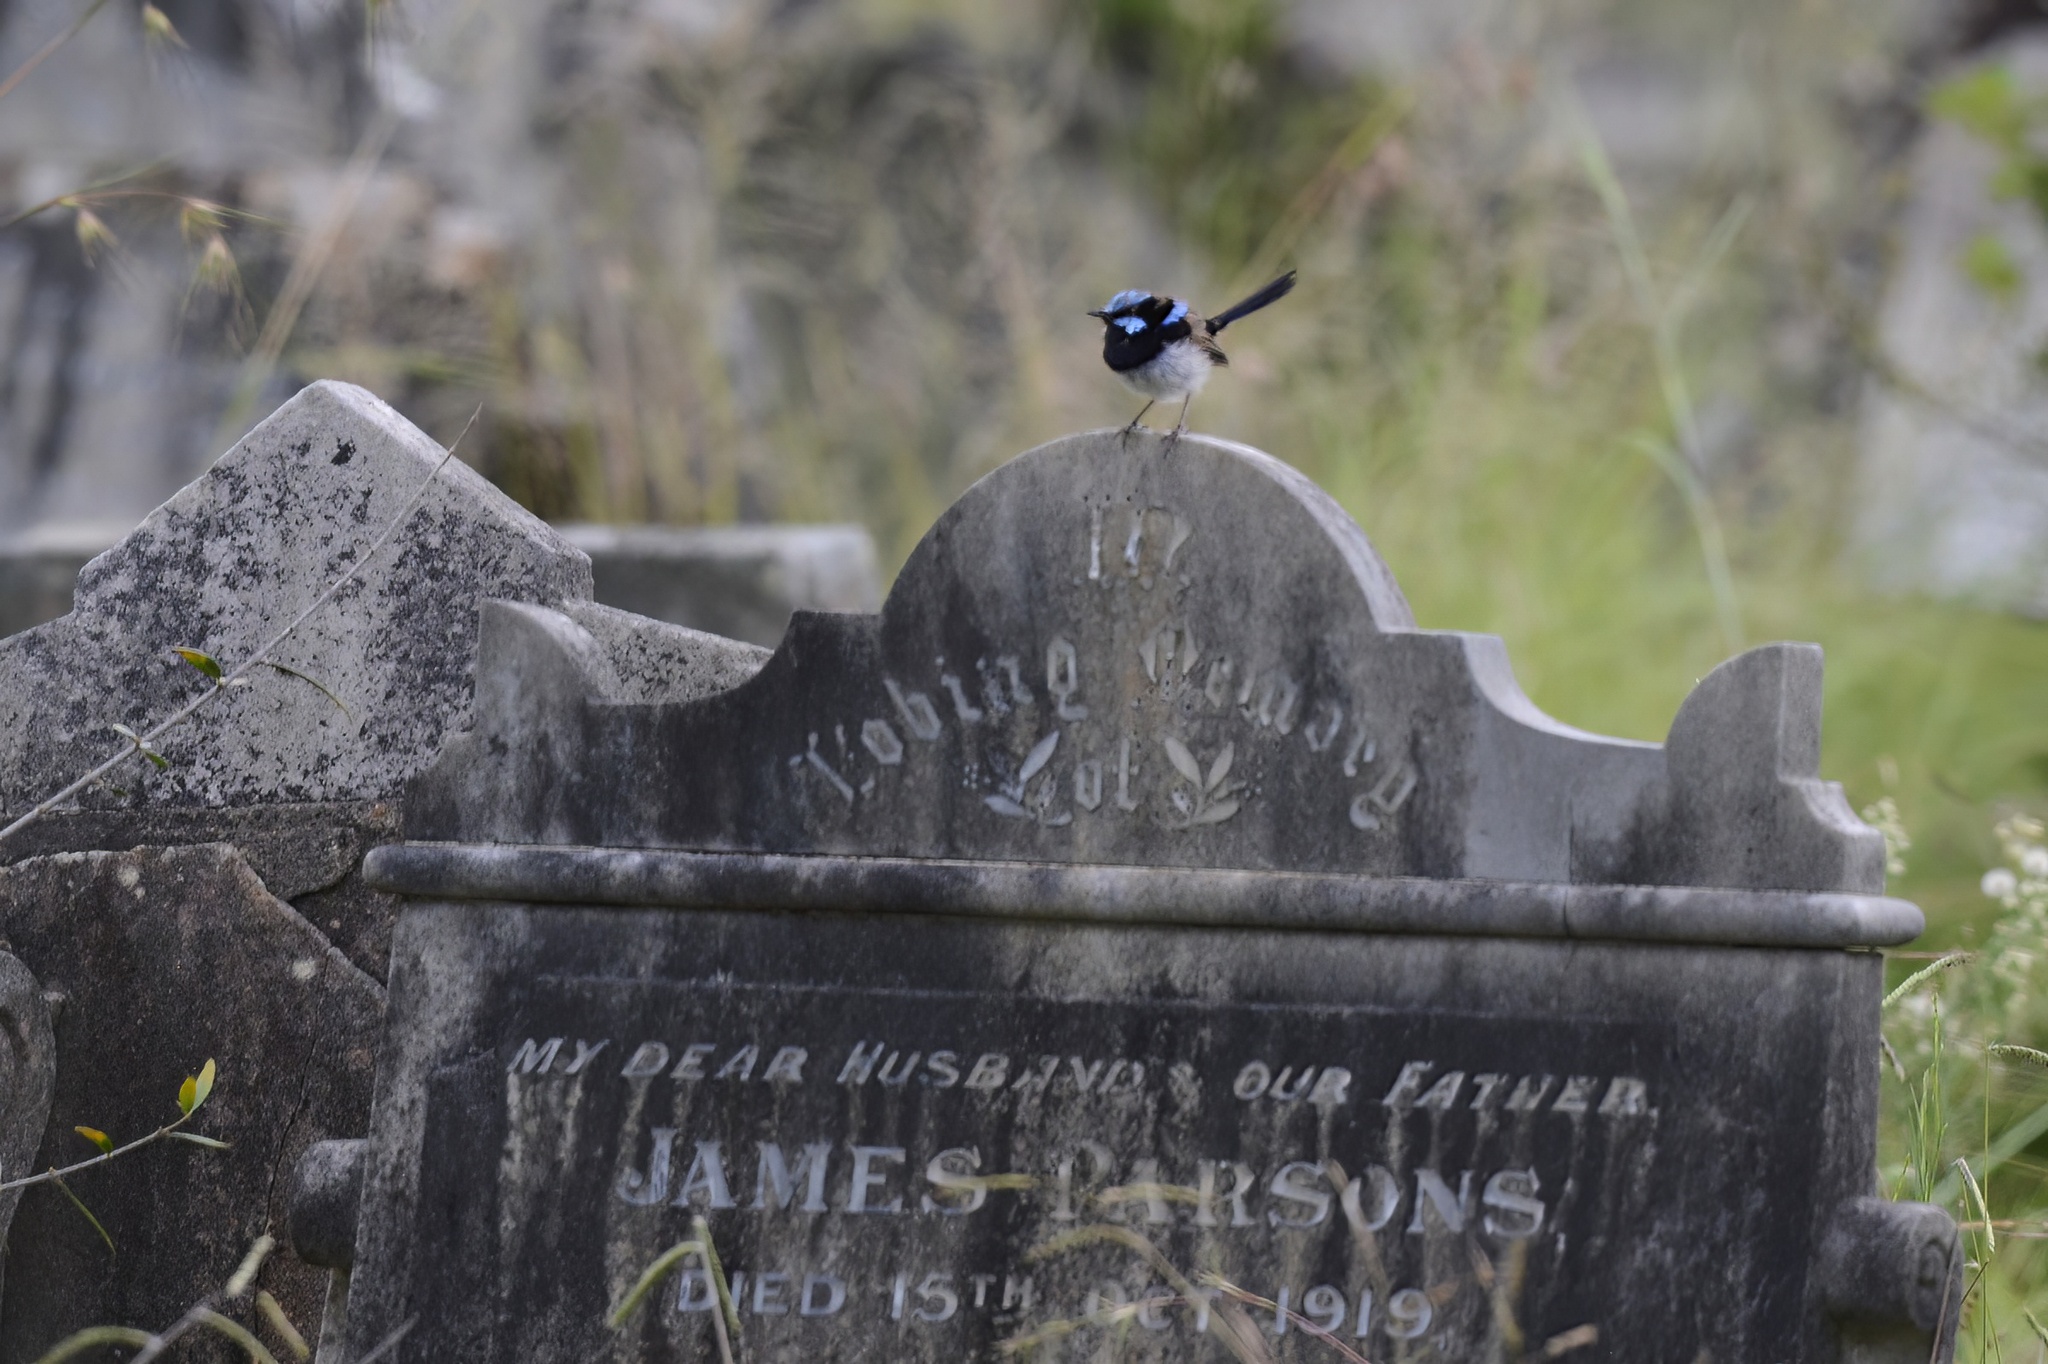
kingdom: Animalia
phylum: Chordata
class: Aves
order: Passeriformes
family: Maluridae
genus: Malurus
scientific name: Malurus cyaneus
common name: Superb fairywren
